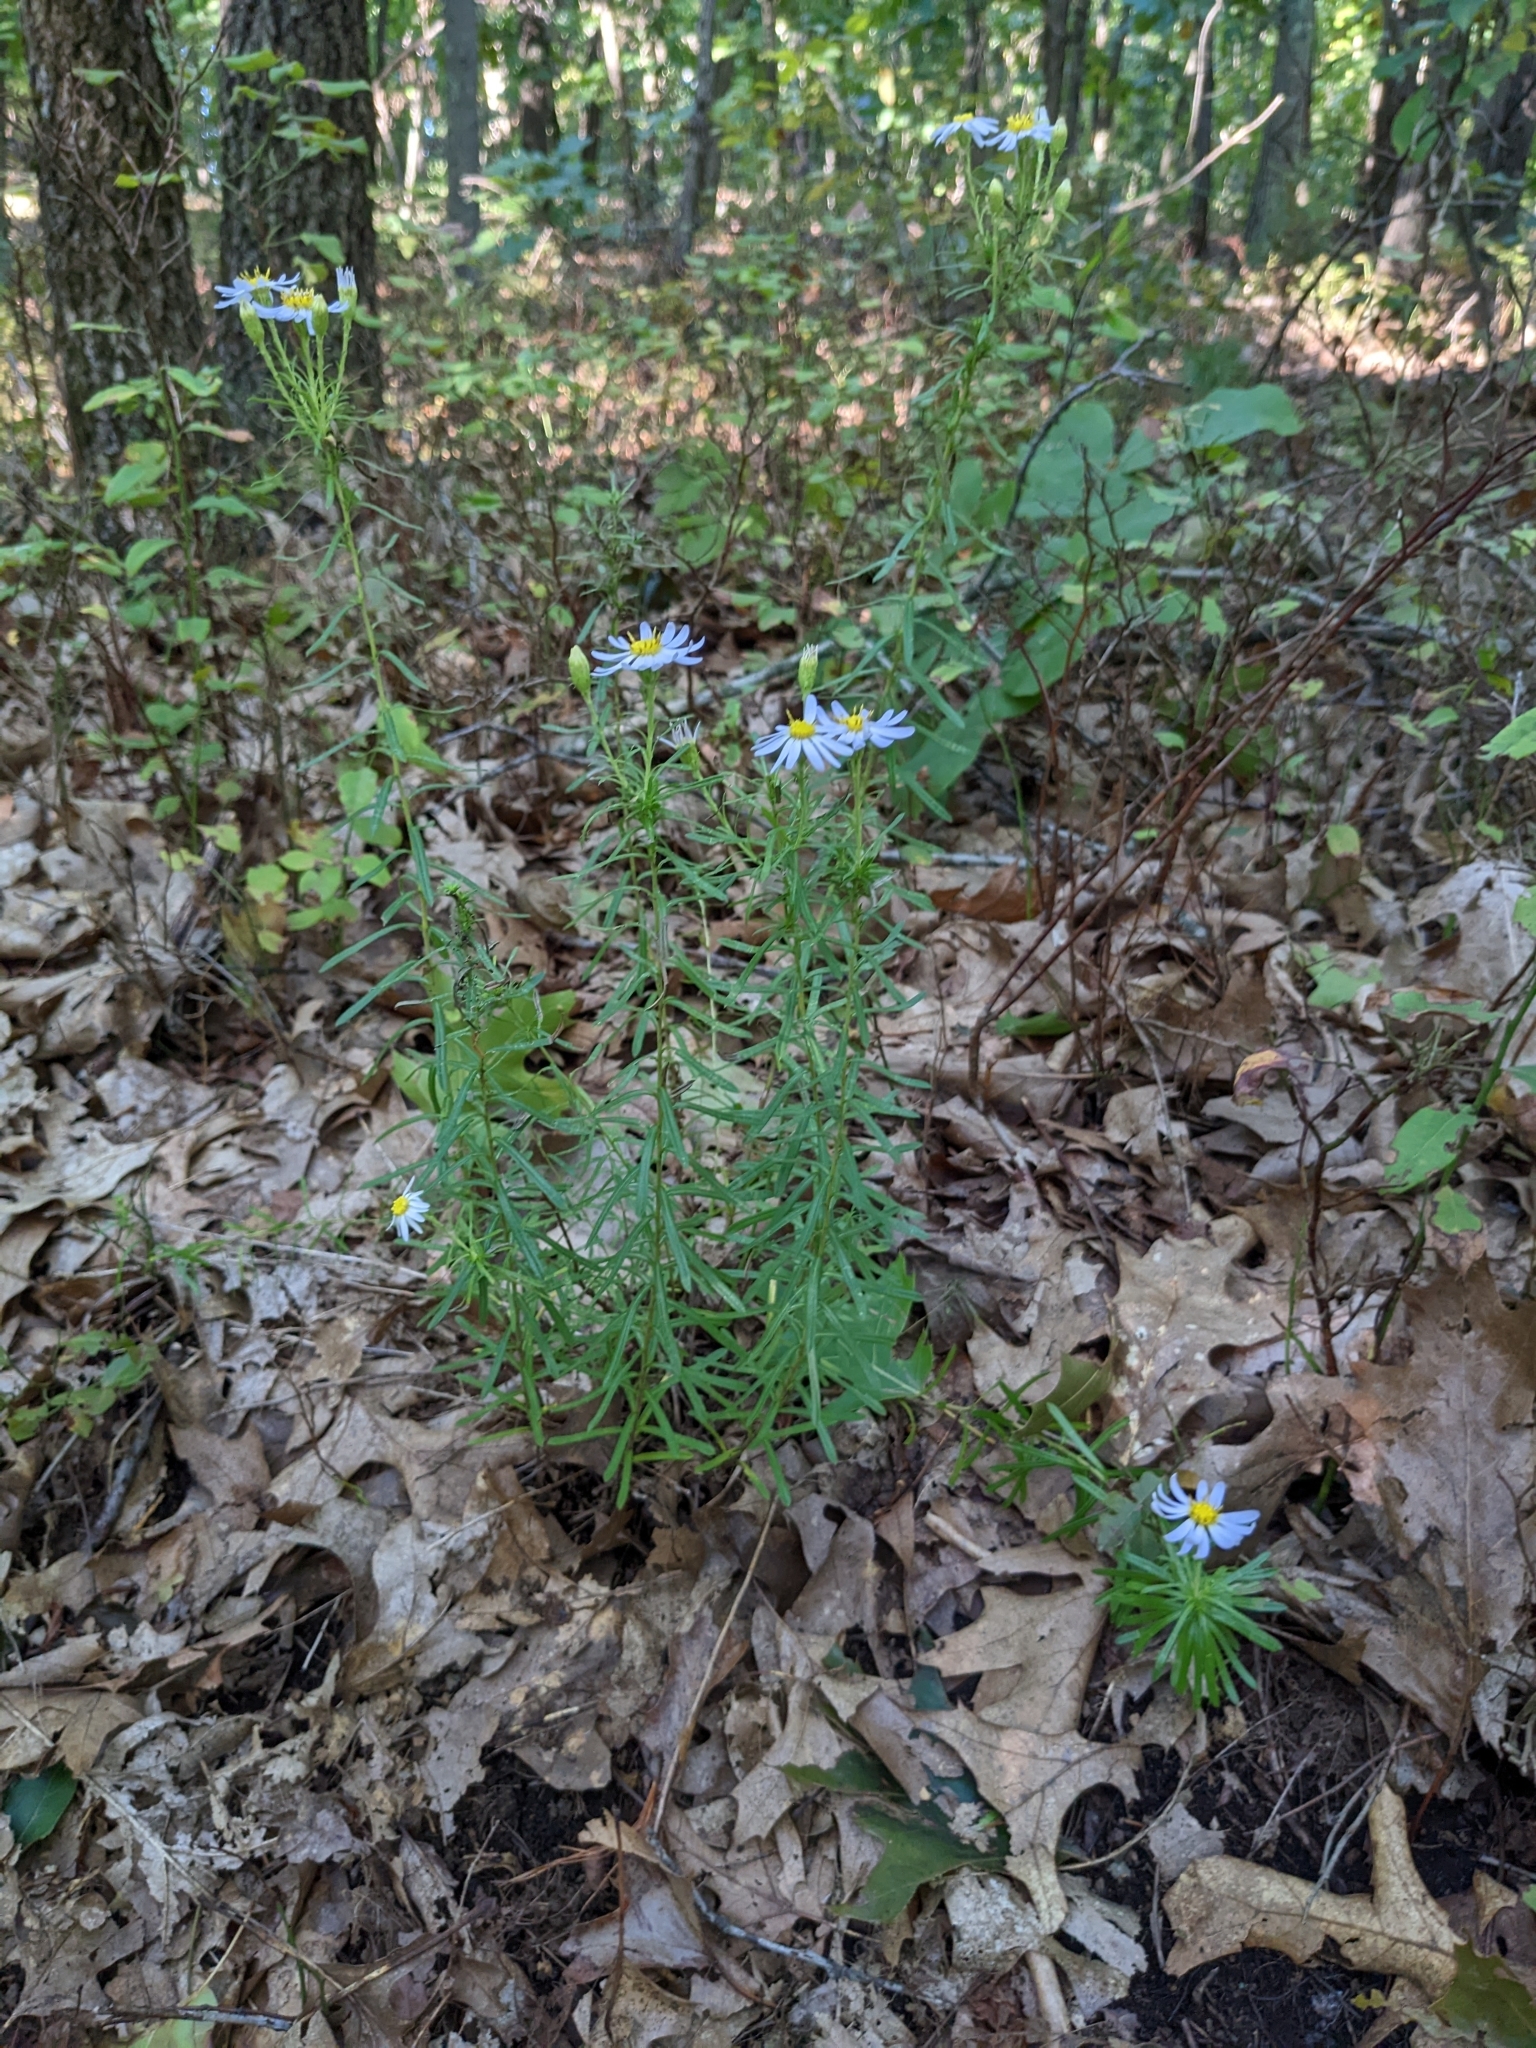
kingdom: Plantae
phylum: Tracheophyta
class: Magnoliopsida
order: Asterales
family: Asteraceae
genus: Ionactis
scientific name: Ionactis linariifolia
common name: Flax-leaf aster
